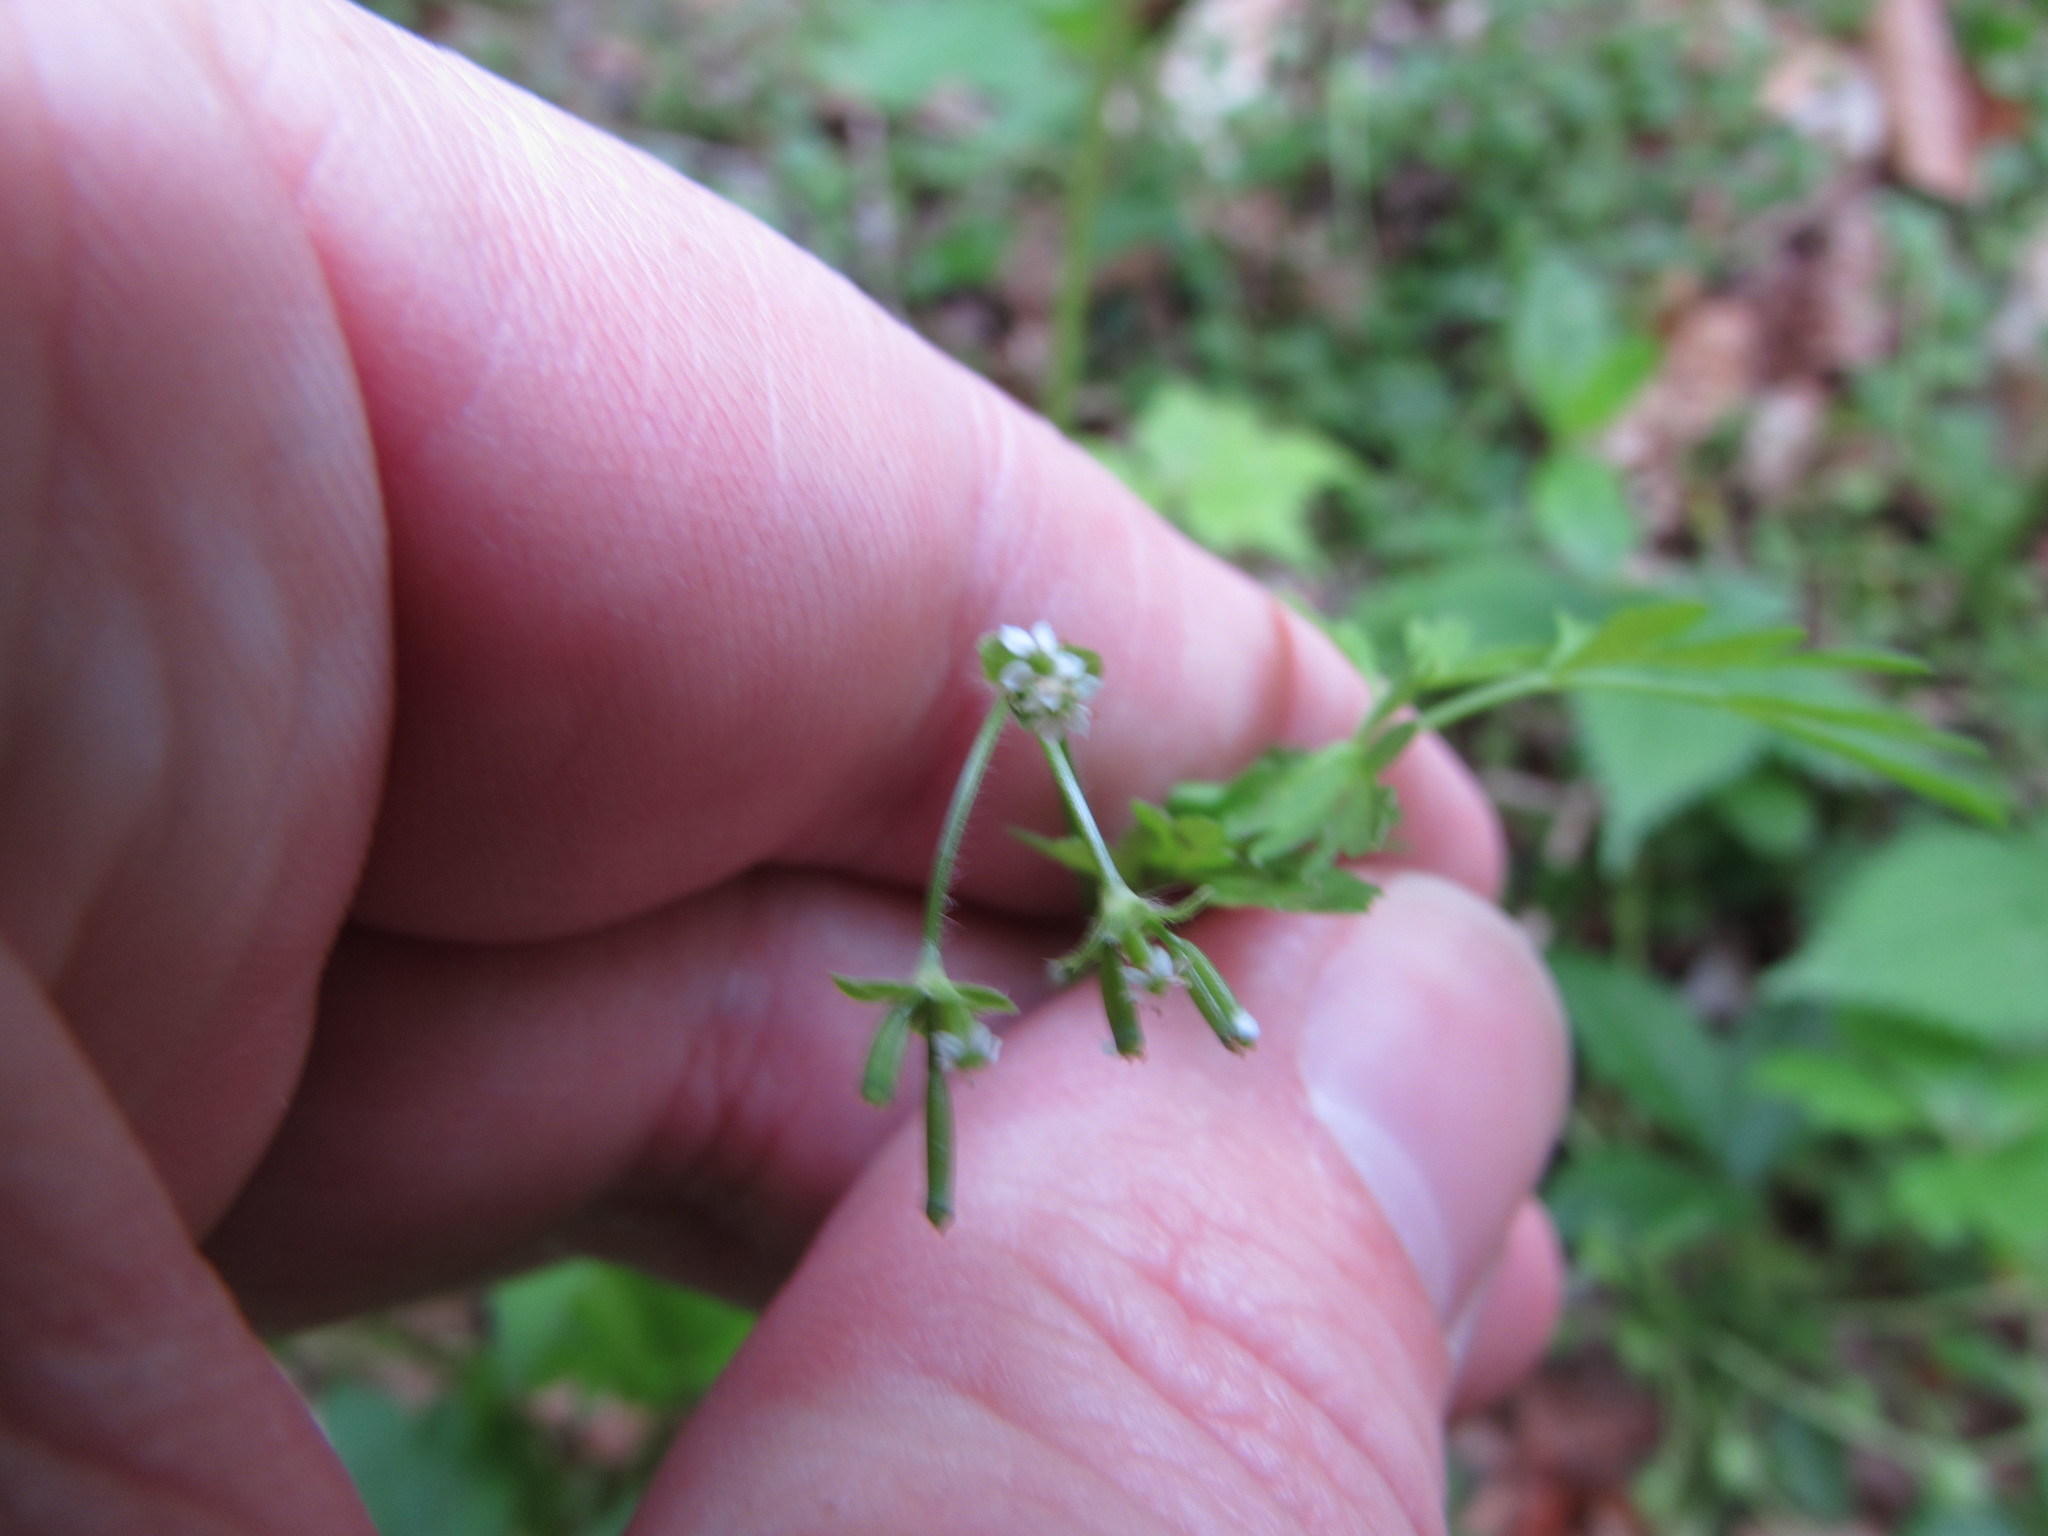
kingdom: Plantae
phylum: Tracheophyta
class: Magnoliopsida
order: Apiales
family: Apiaceae
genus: Chaerophyllum
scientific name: Chaerophyllum procumbens
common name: Spreading chervil
